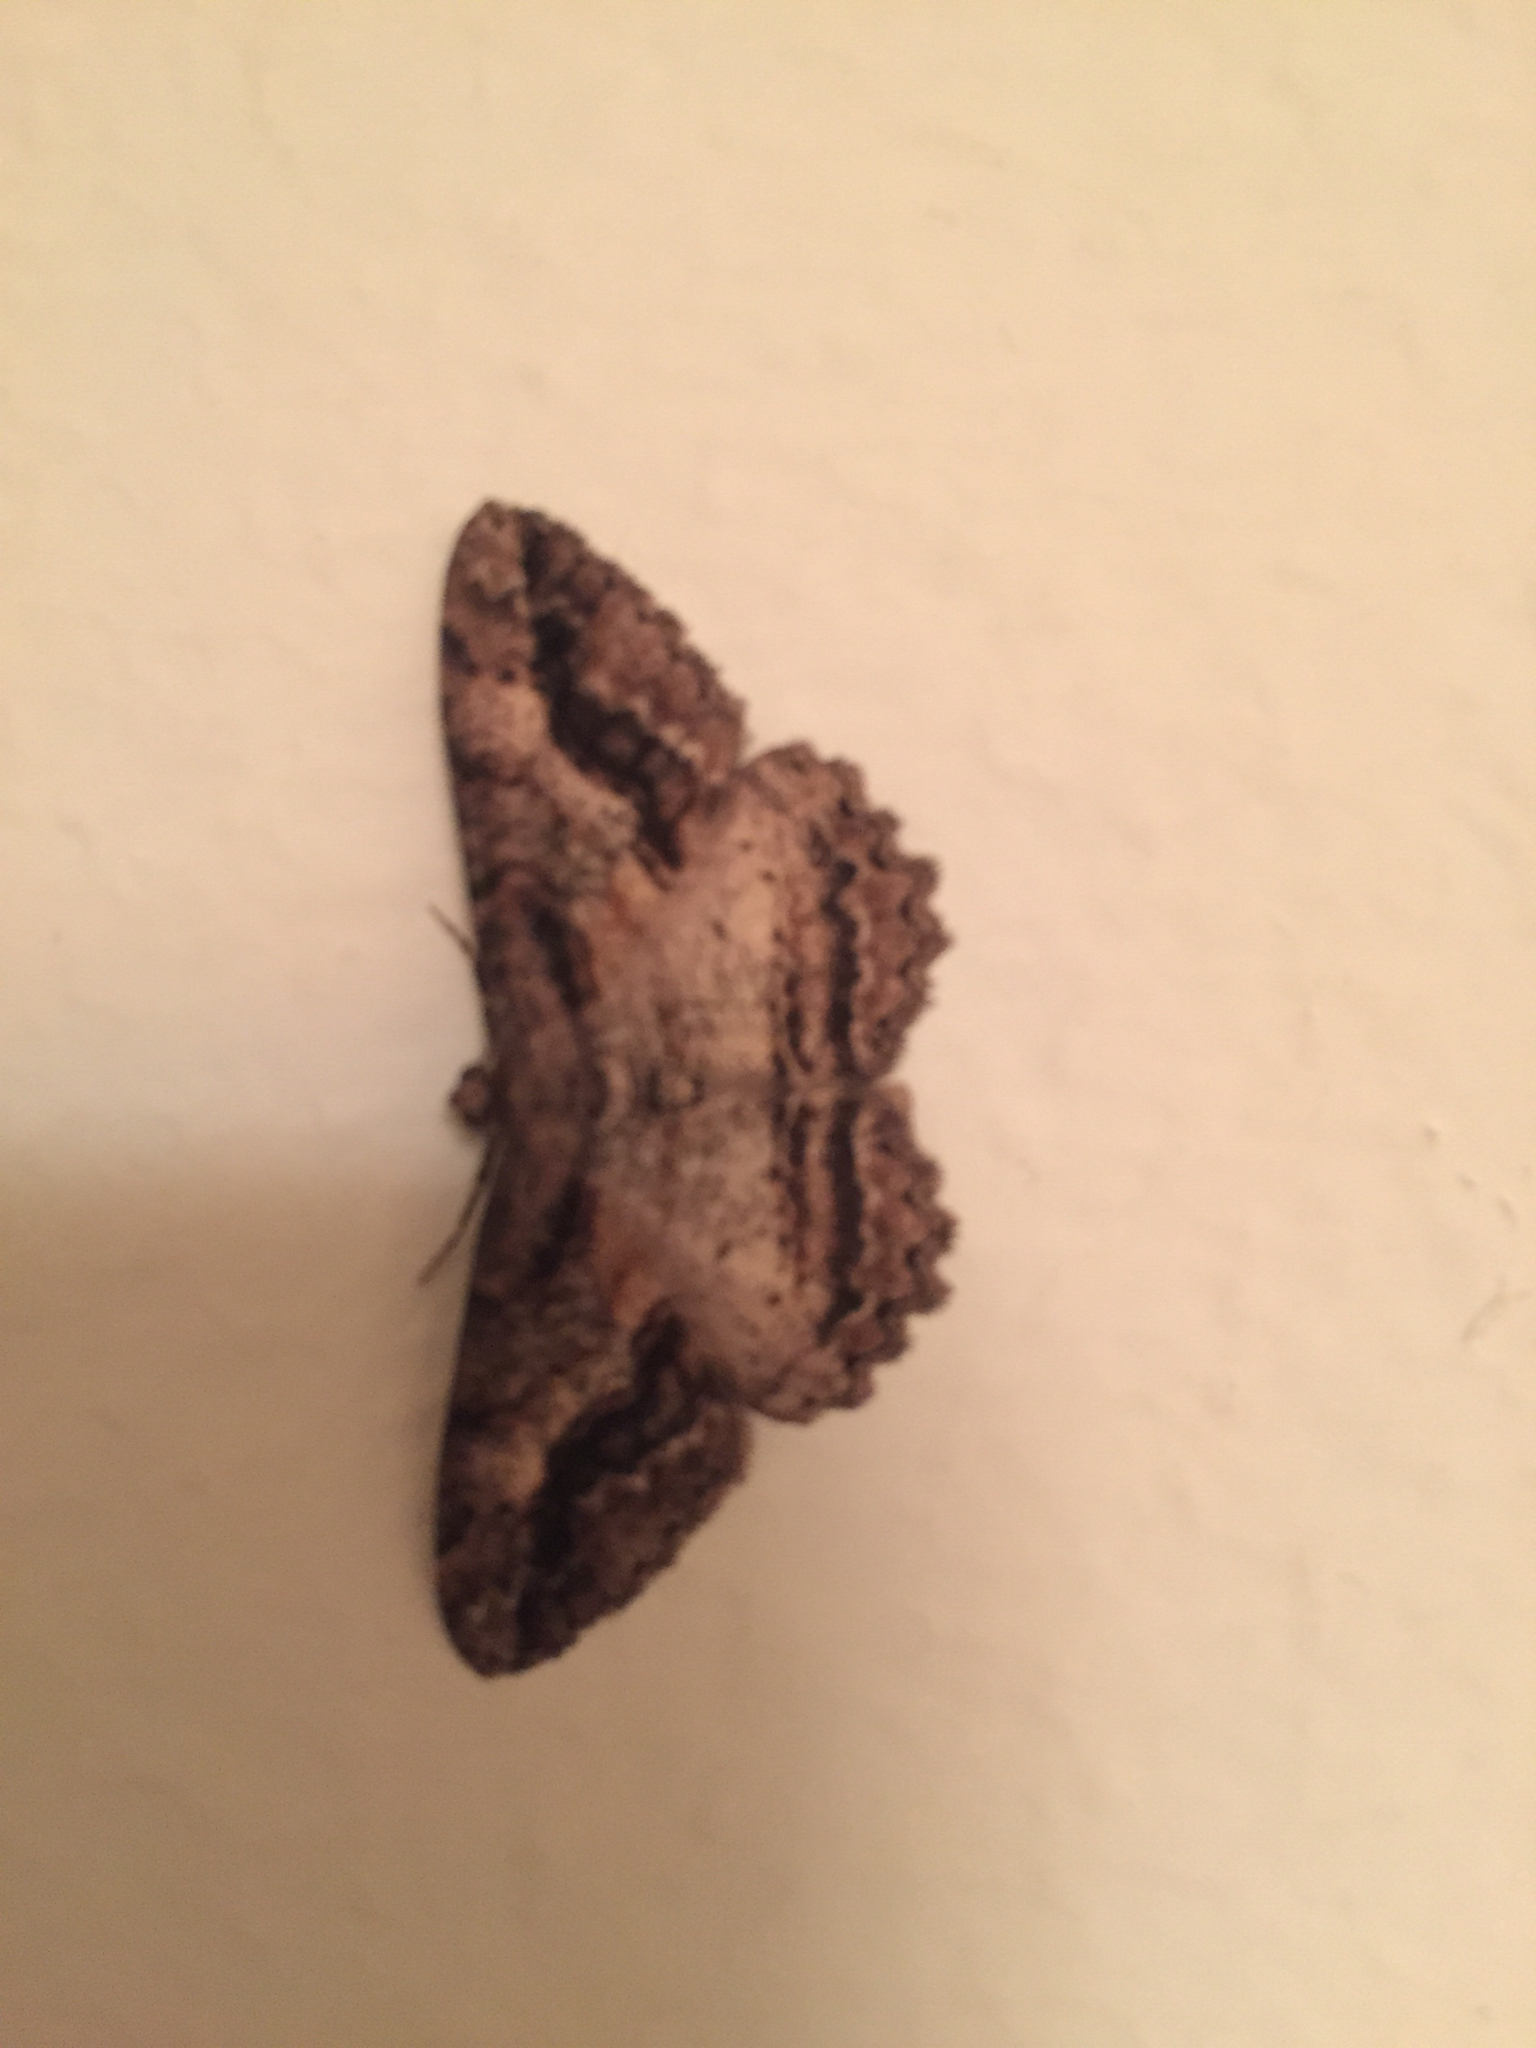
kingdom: Animalia
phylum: Arthropoda
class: Insecta
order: Lepidoptera
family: Geometridae
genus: Neoalcis
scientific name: Neoalcis californiaria
